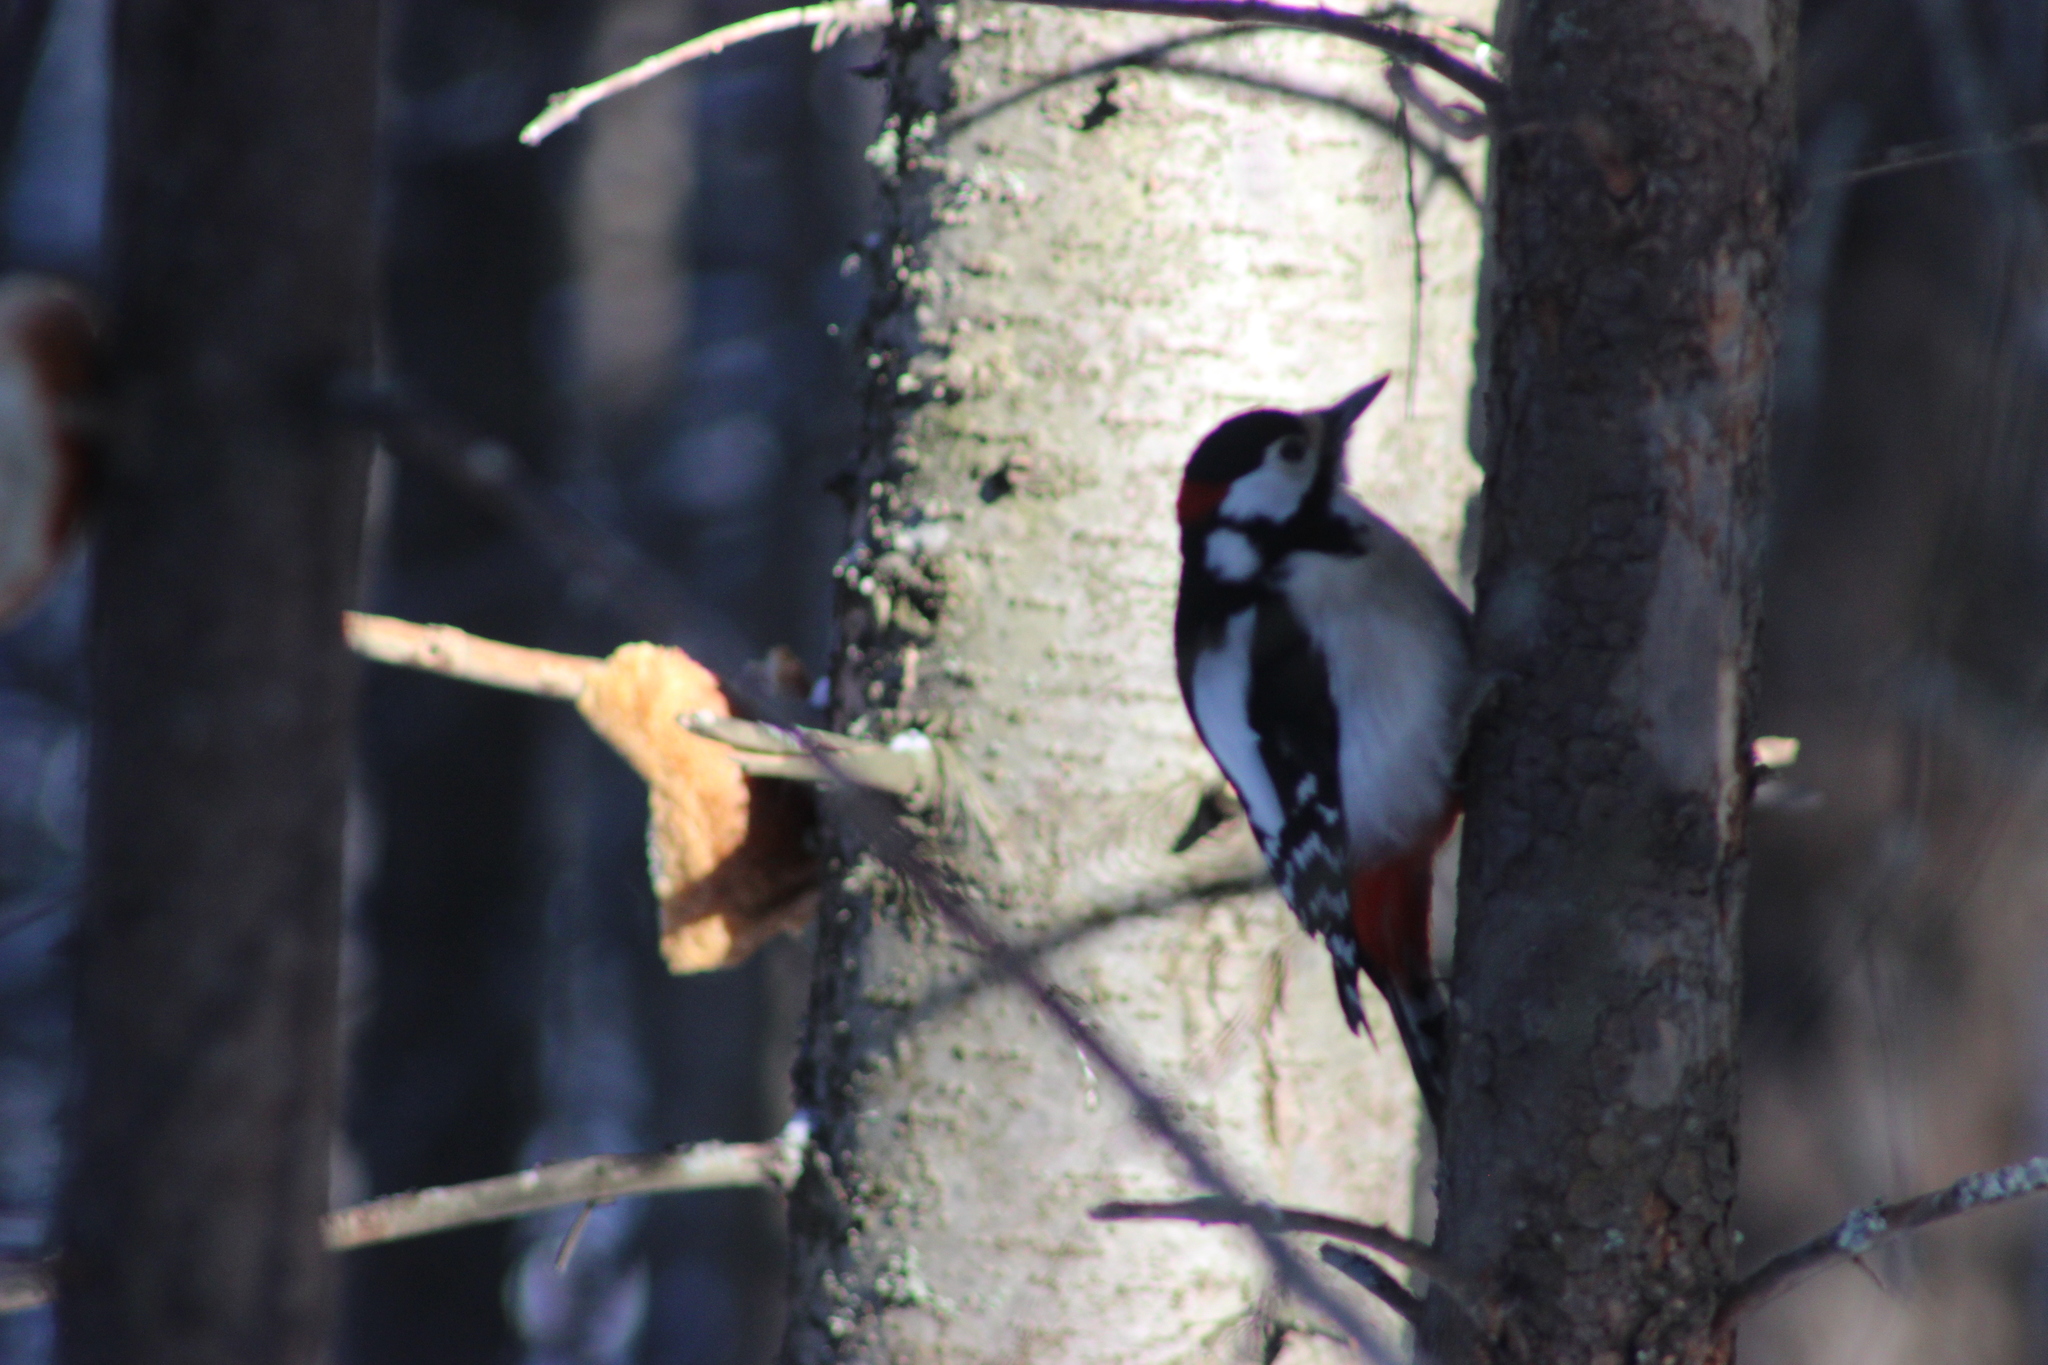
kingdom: Animalia
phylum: Chordata
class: Aves
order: Piciformes
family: Picidae
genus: Dendrocopos
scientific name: Dendrocopos major
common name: Great spotted woodpecker
